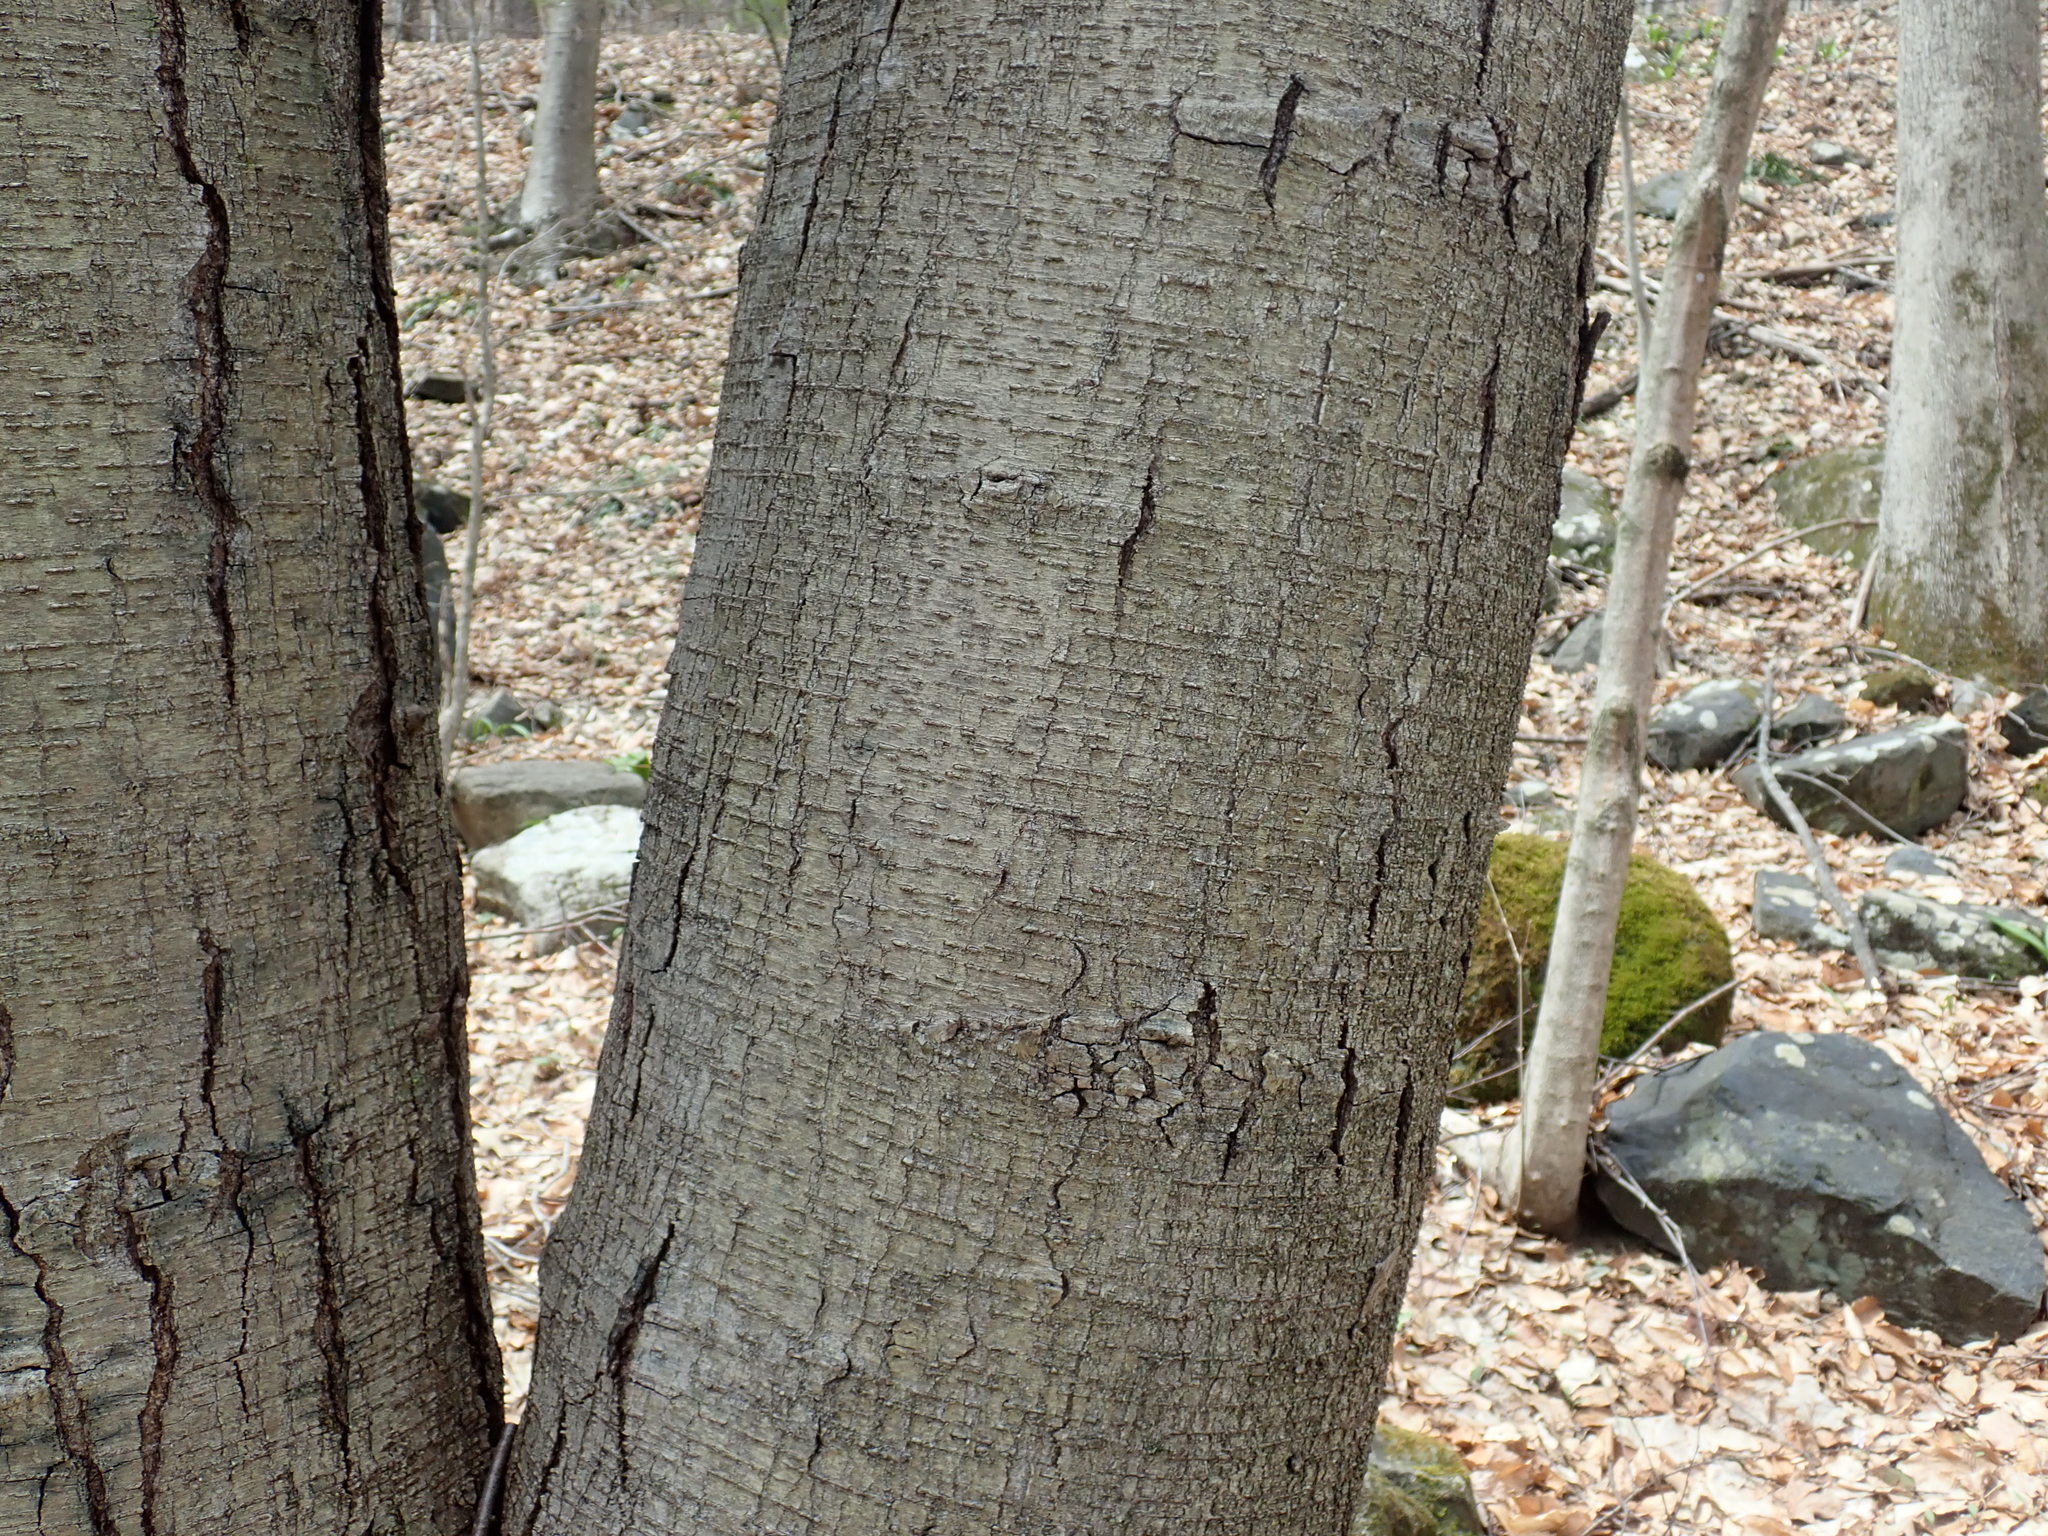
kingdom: Plantae
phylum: Tracheophyta
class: Magnoliopsida
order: Fagales
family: Betulaceae
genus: Betula
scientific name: Betula lenta
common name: Black birch
